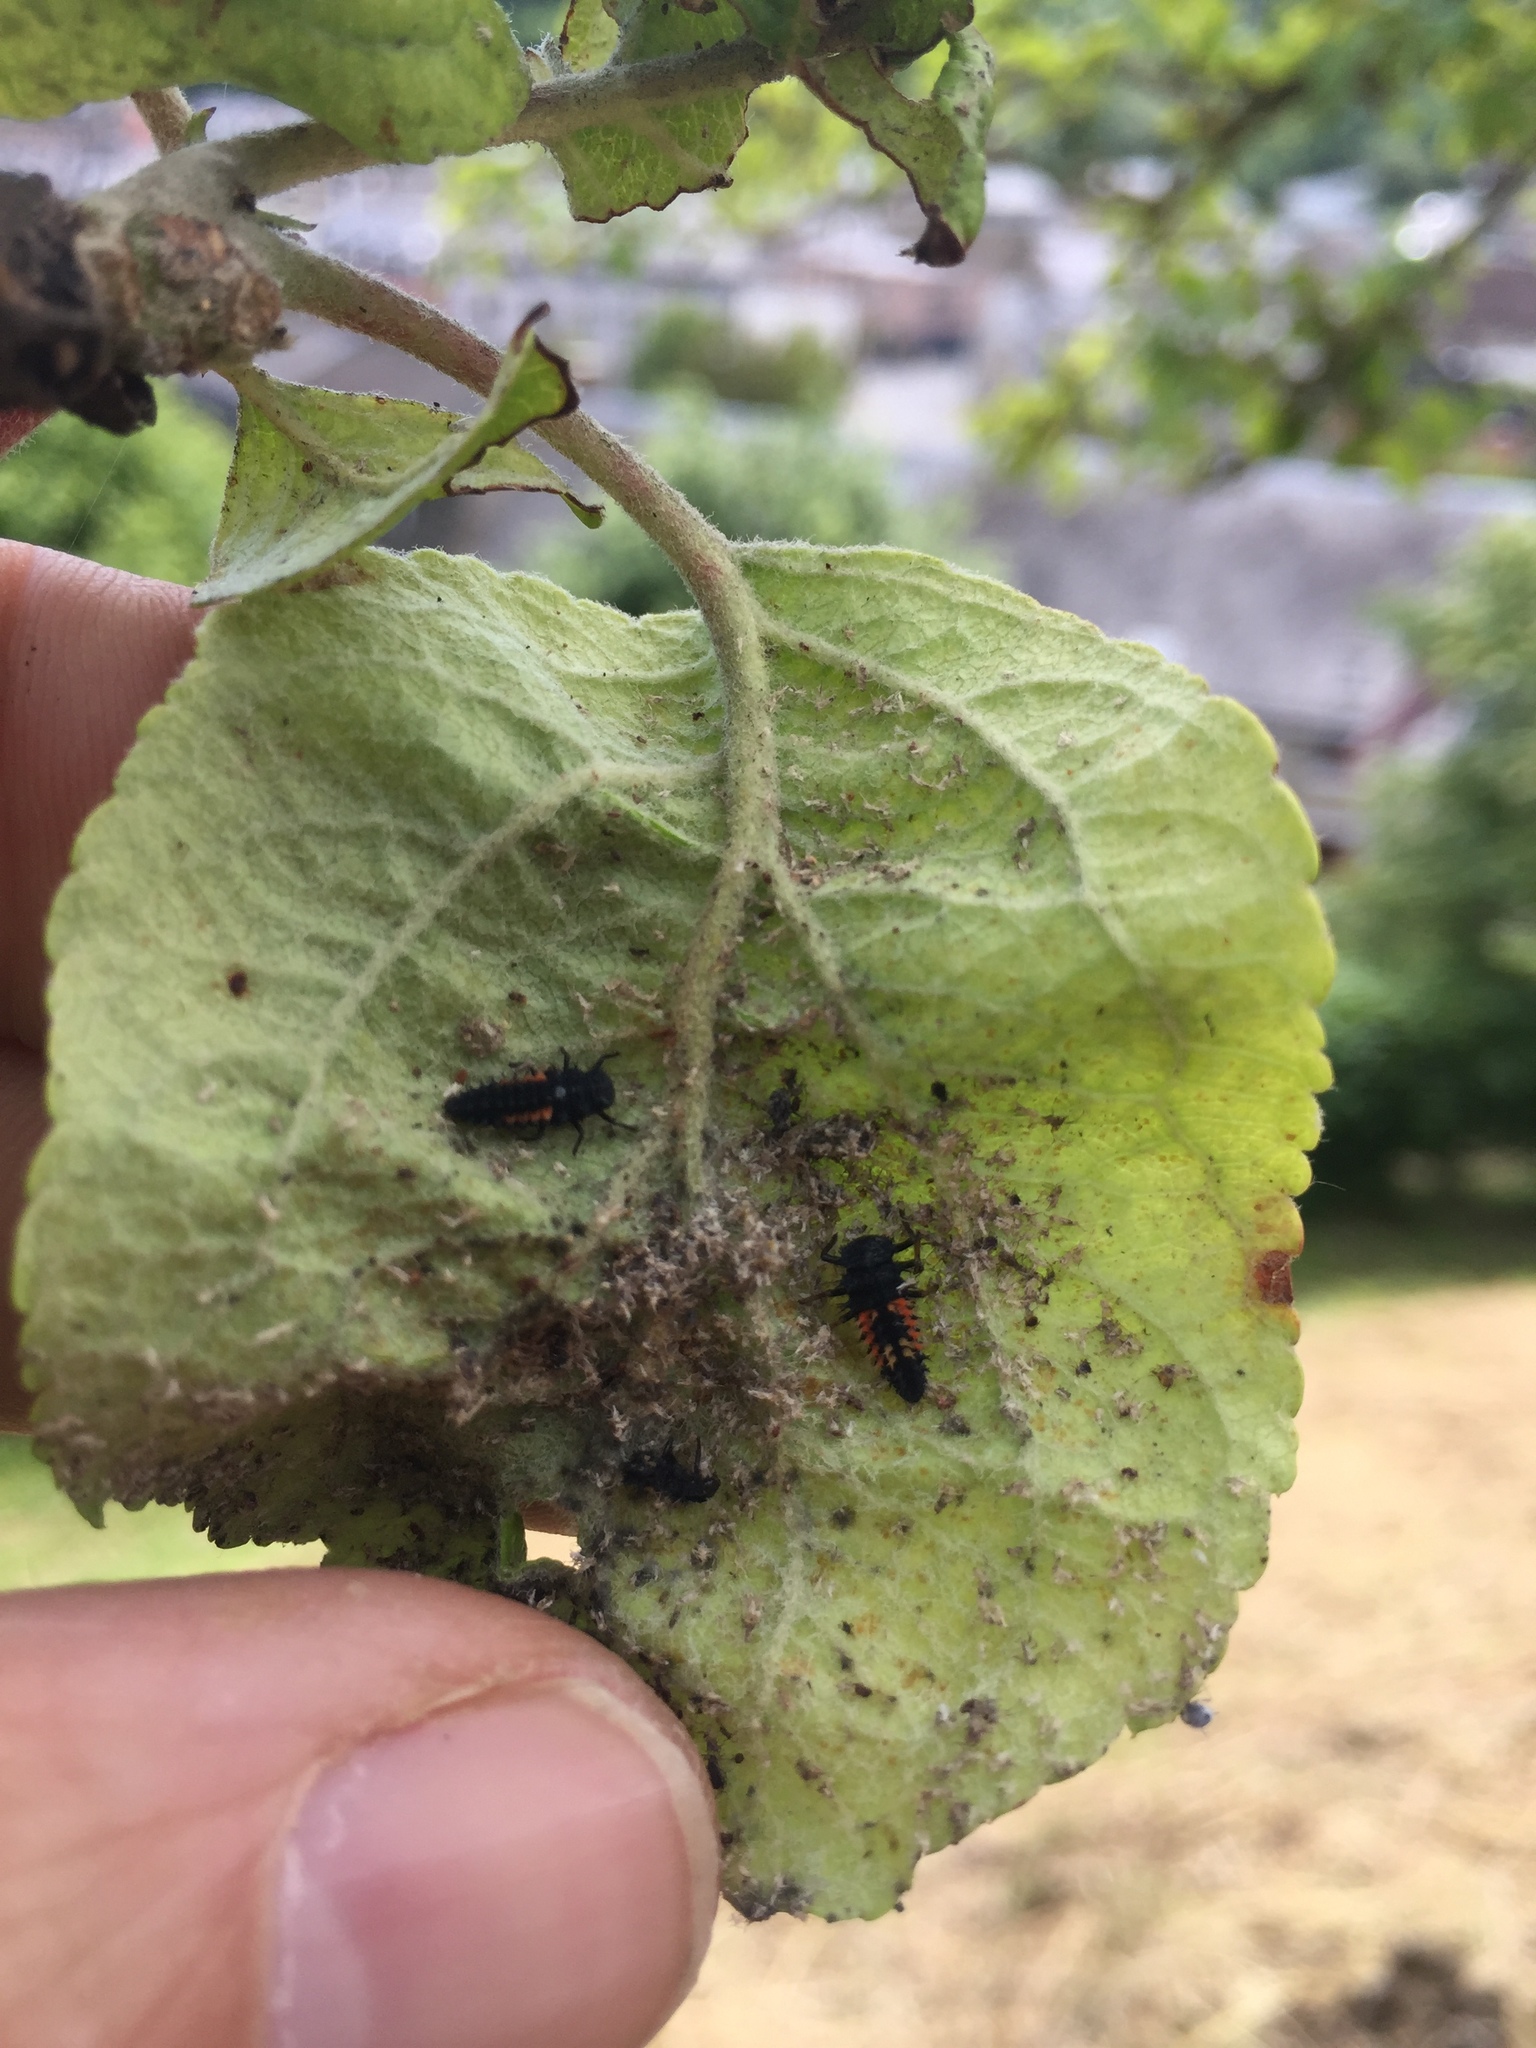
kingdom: Animalia
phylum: Arthropoda
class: Insecta
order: Coleoptera
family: Coccinellidae
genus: Harmonia
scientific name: Harmonia axyridis
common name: Harlequin ladybird
